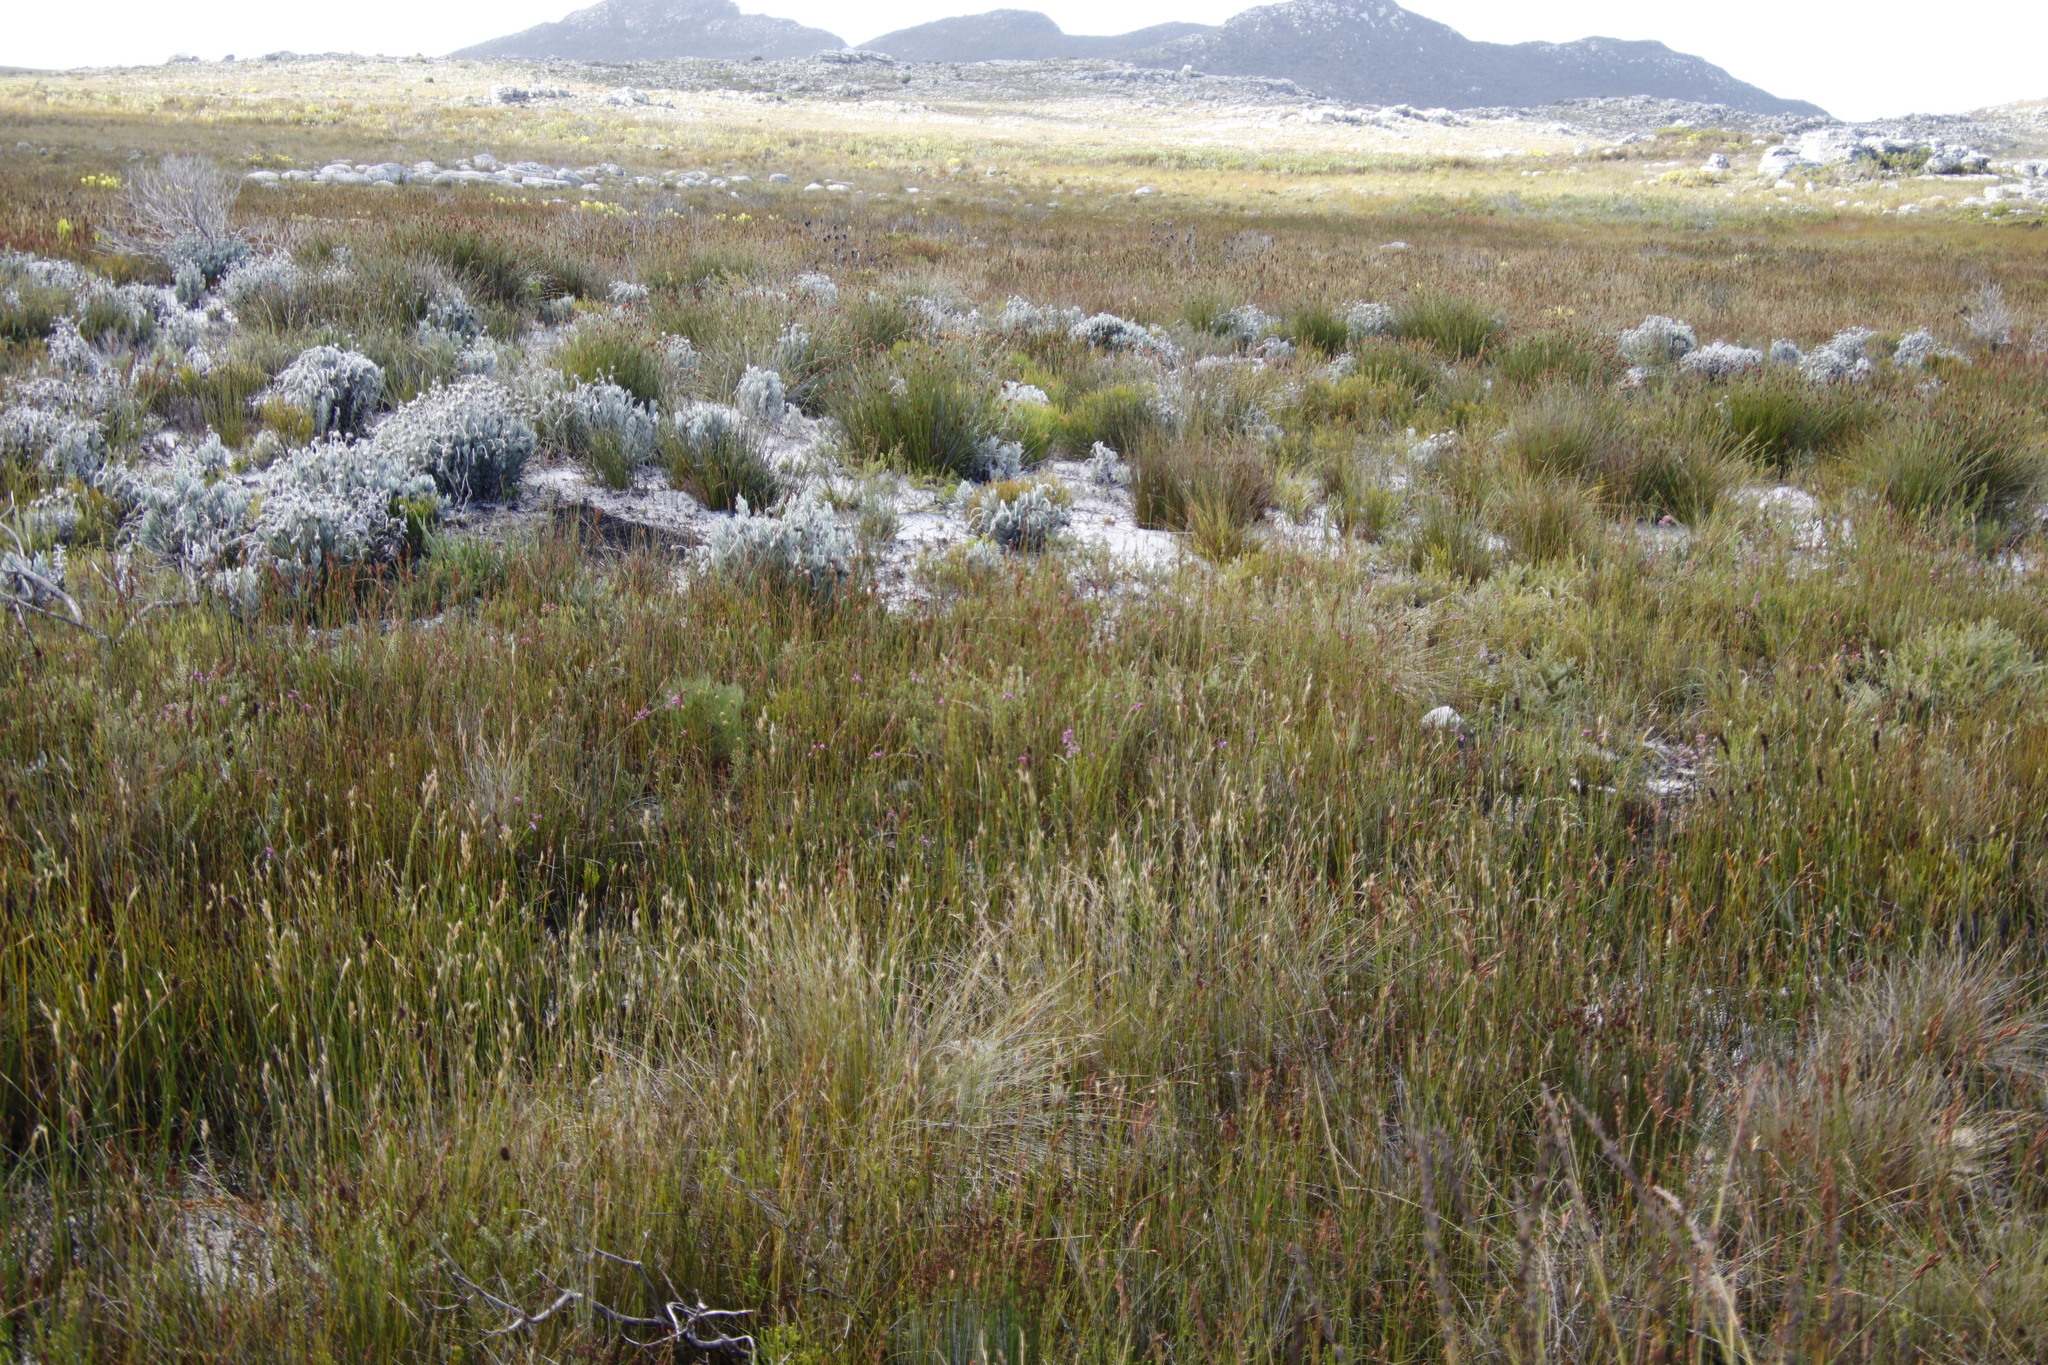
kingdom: Plantae
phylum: Tracheophyta
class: Magnoliopsida
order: Ericales
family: Ericaceae
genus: Erica
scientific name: Erica obliqua
